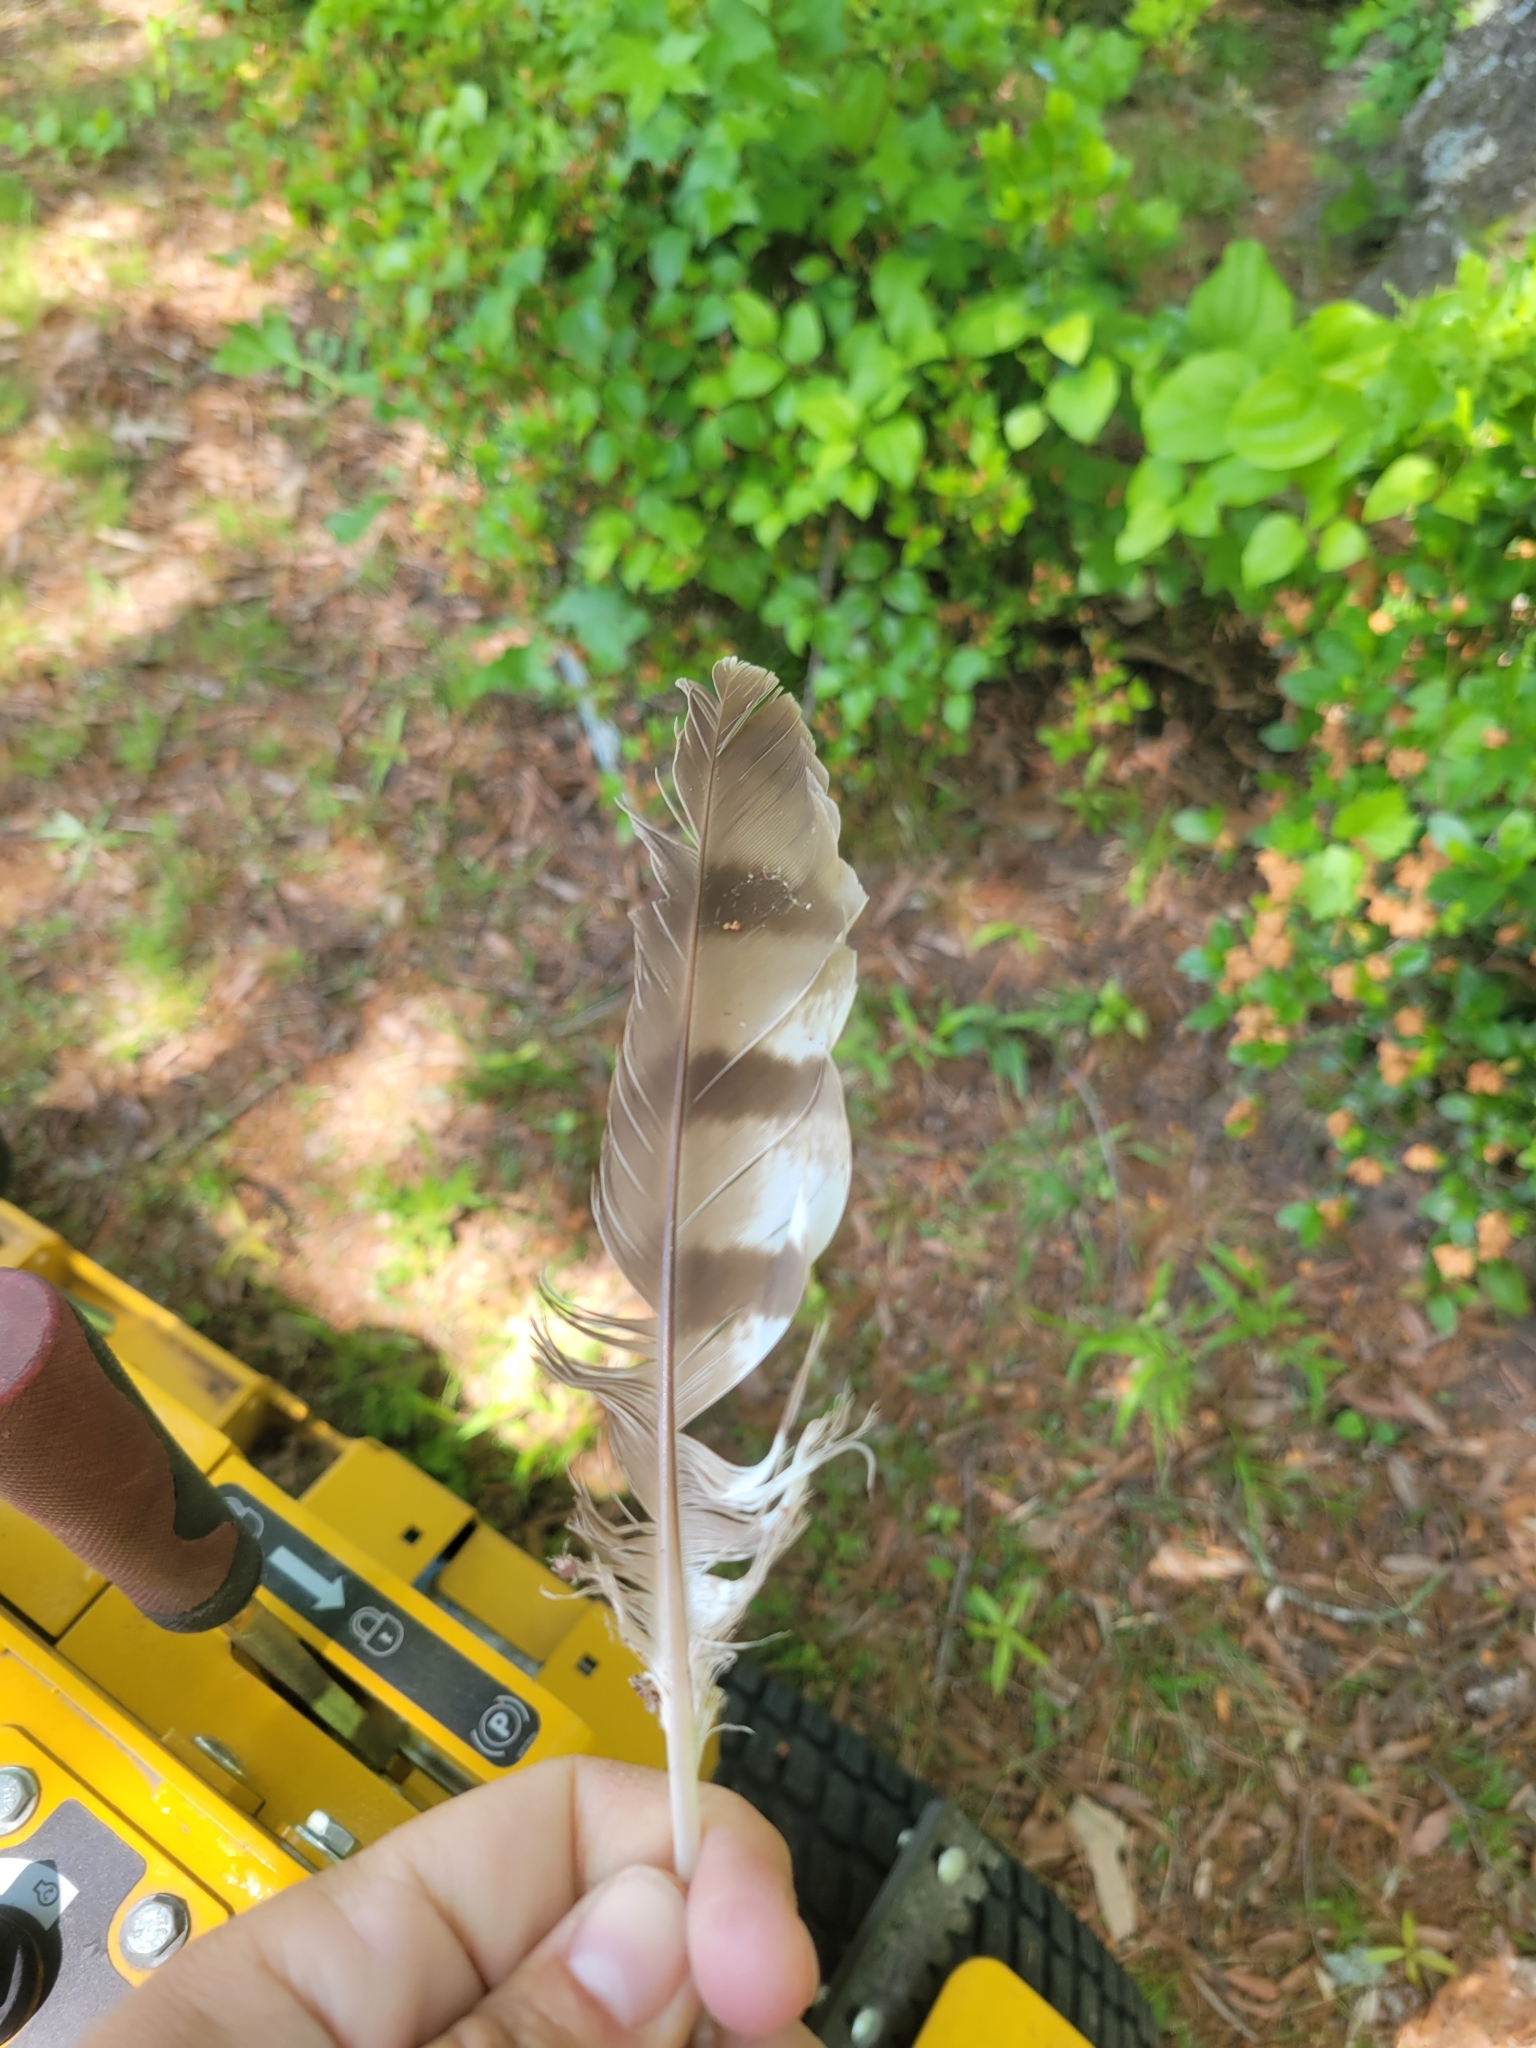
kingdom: Animalia
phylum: Chordata
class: Aves
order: Accipitriformes
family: Accipitridae
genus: Accipiter
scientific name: Accipiter cooperii
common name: Cooper's hawk
